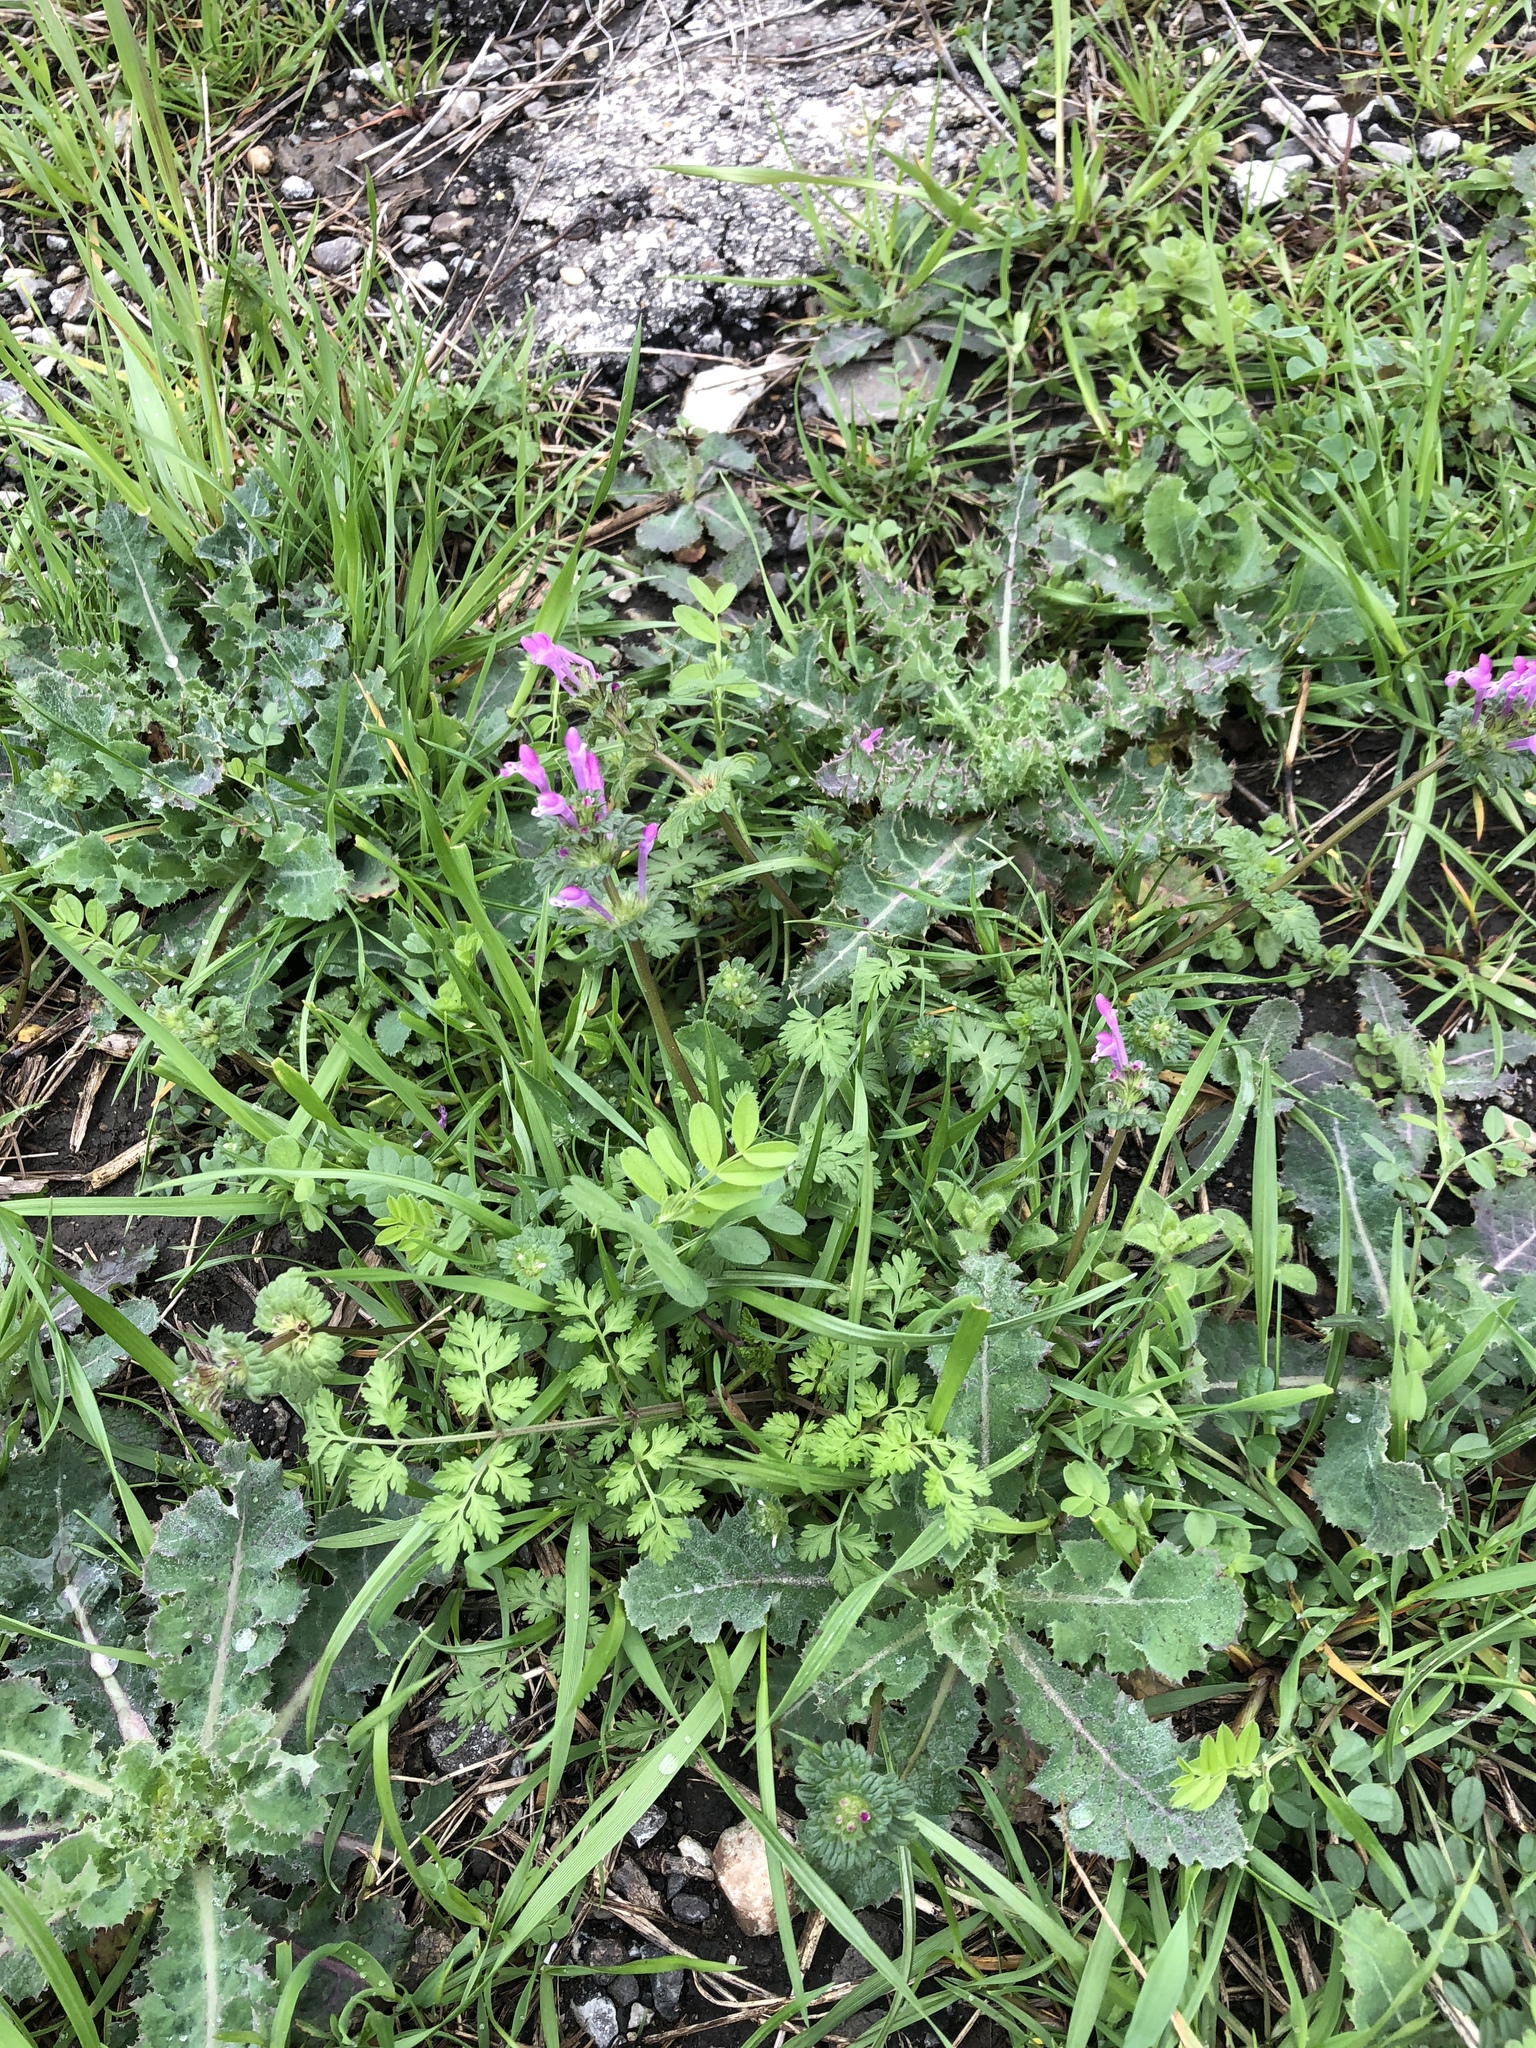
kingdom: Plantae
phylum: Tracheophyta
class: Magnoliopsida
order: Lamiales
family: Lamiaceae
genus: Lamium
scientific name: Lamium amplexicaule
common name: Henbit dead-nettle
